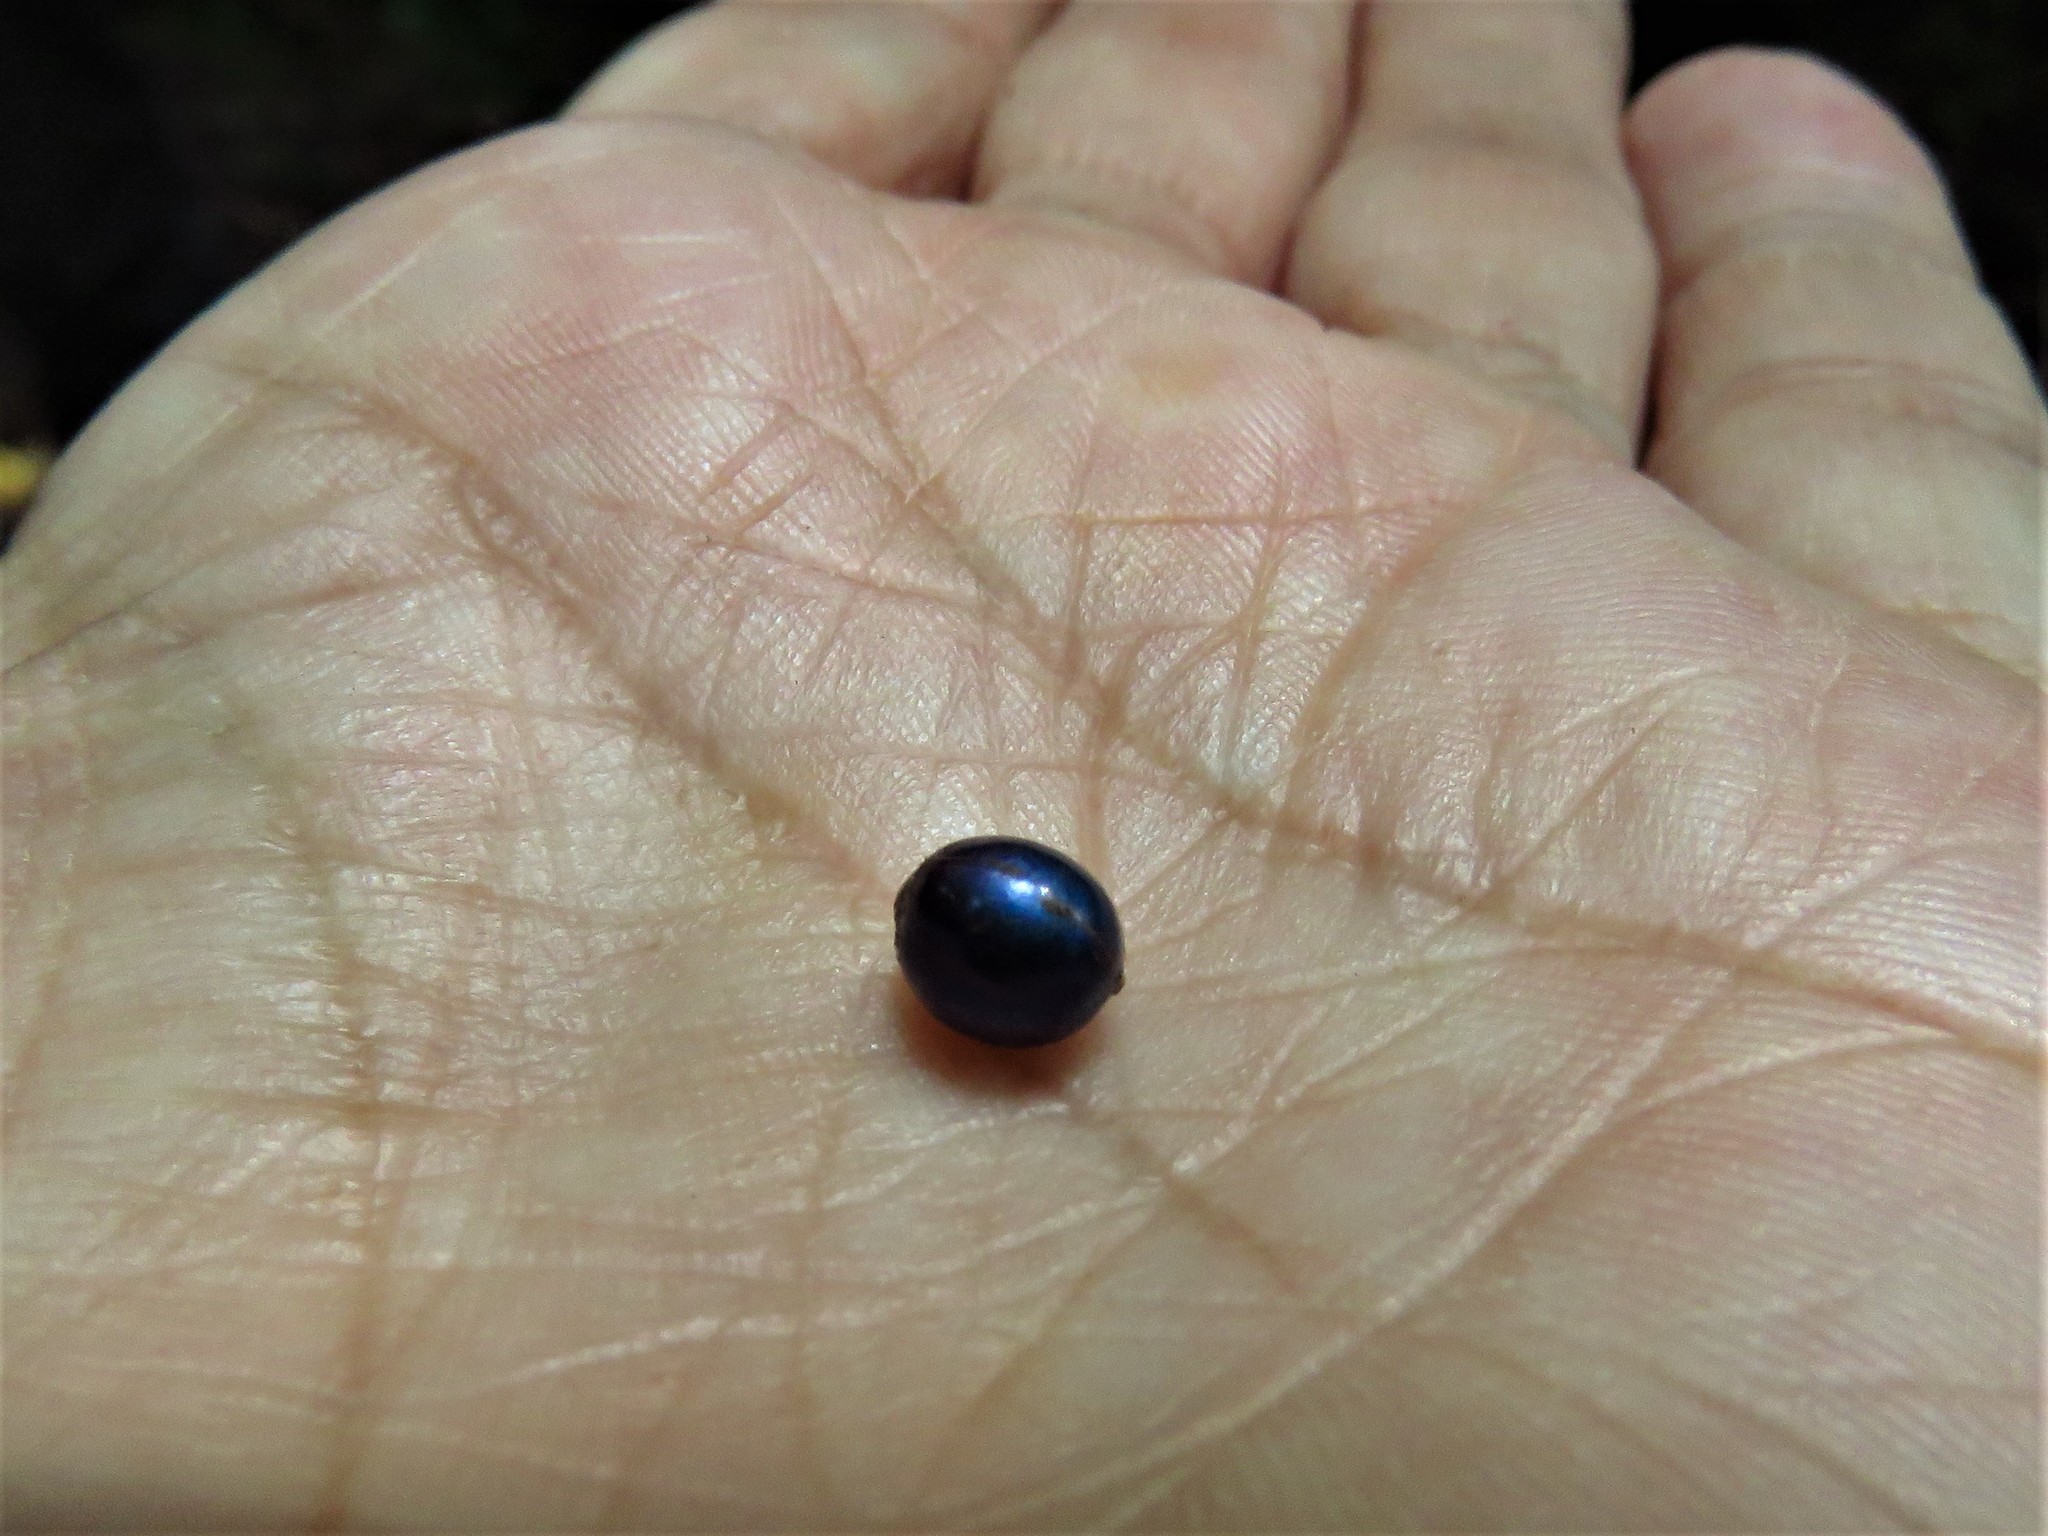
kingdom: Plantae
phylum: Tracheophyta
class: Liliopsida
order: Commelinales
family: Commelinaceae
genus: Pollia
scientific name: Pollia condensata
